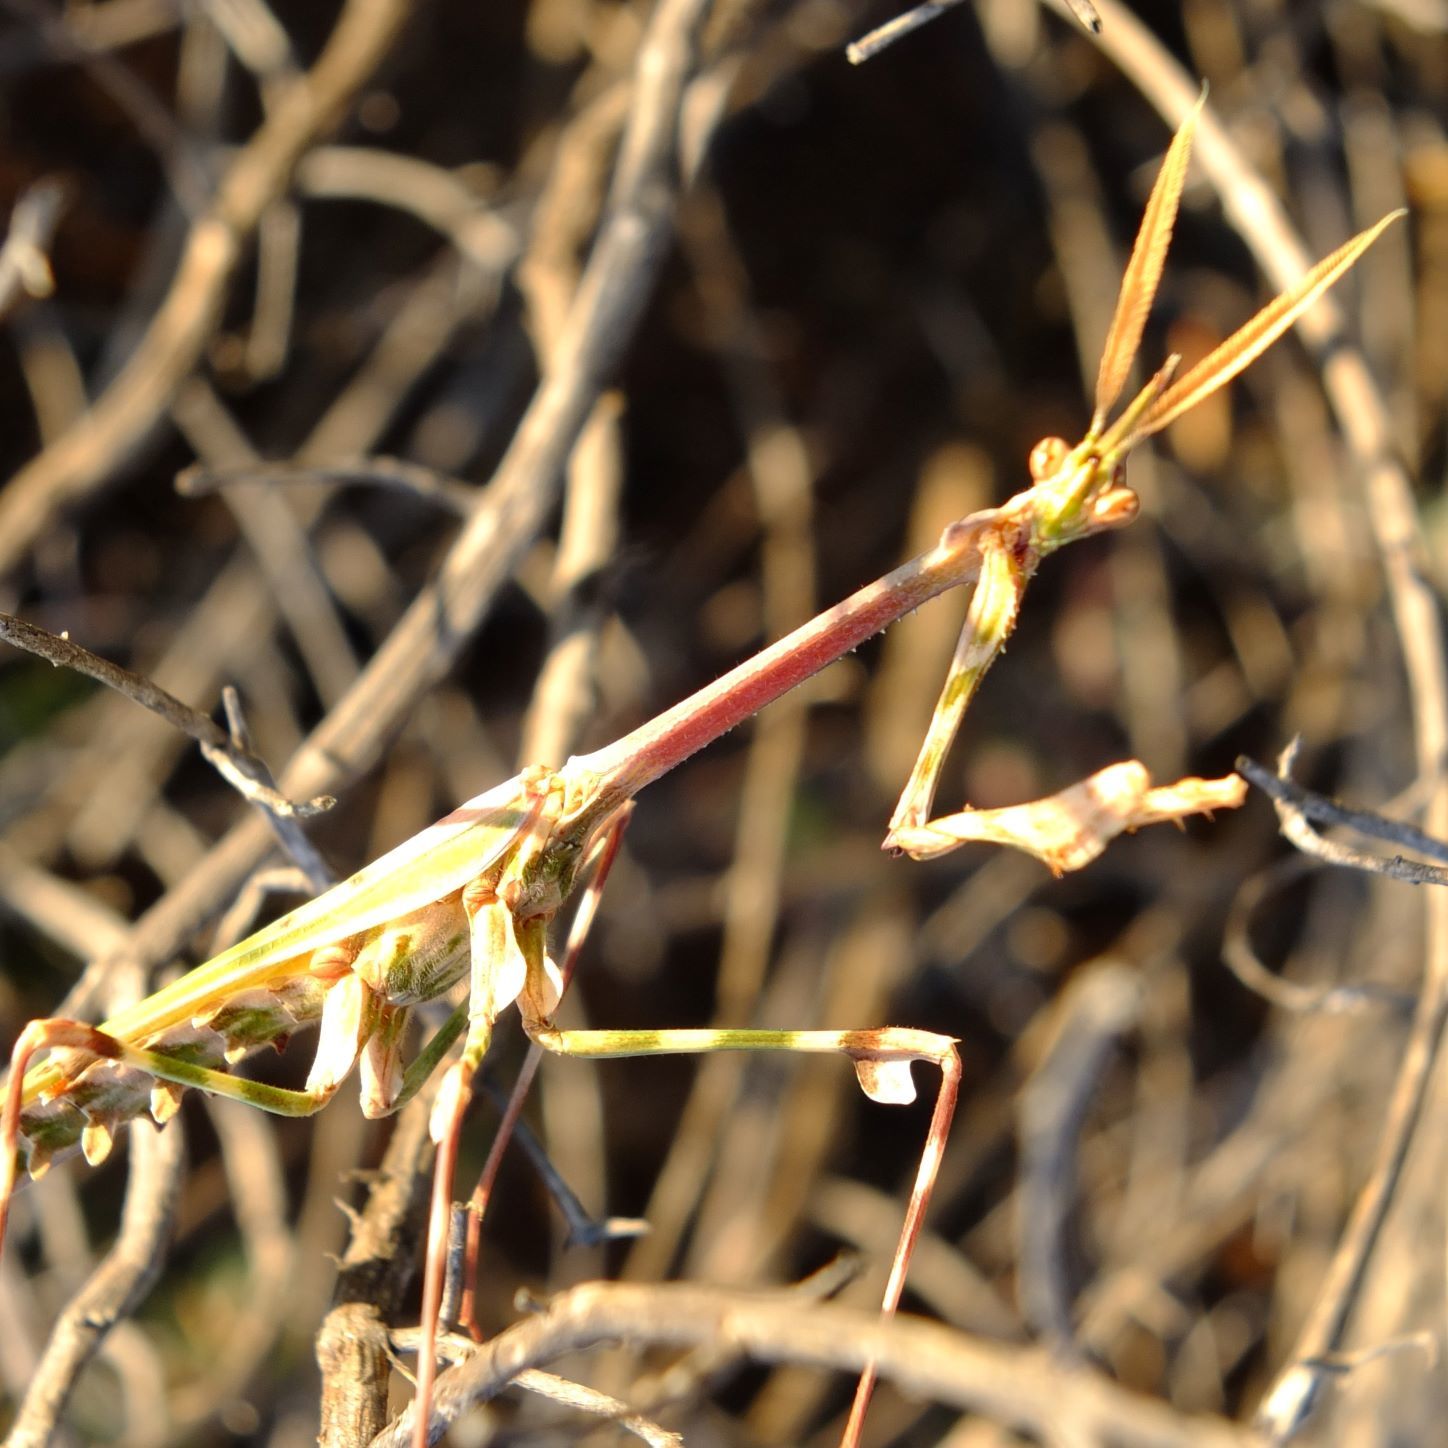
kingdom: Animalia
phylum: Arthropoda
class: Insecta
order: Mantodea
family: Empusidae
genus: Empusa
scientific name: Empusa binotata
